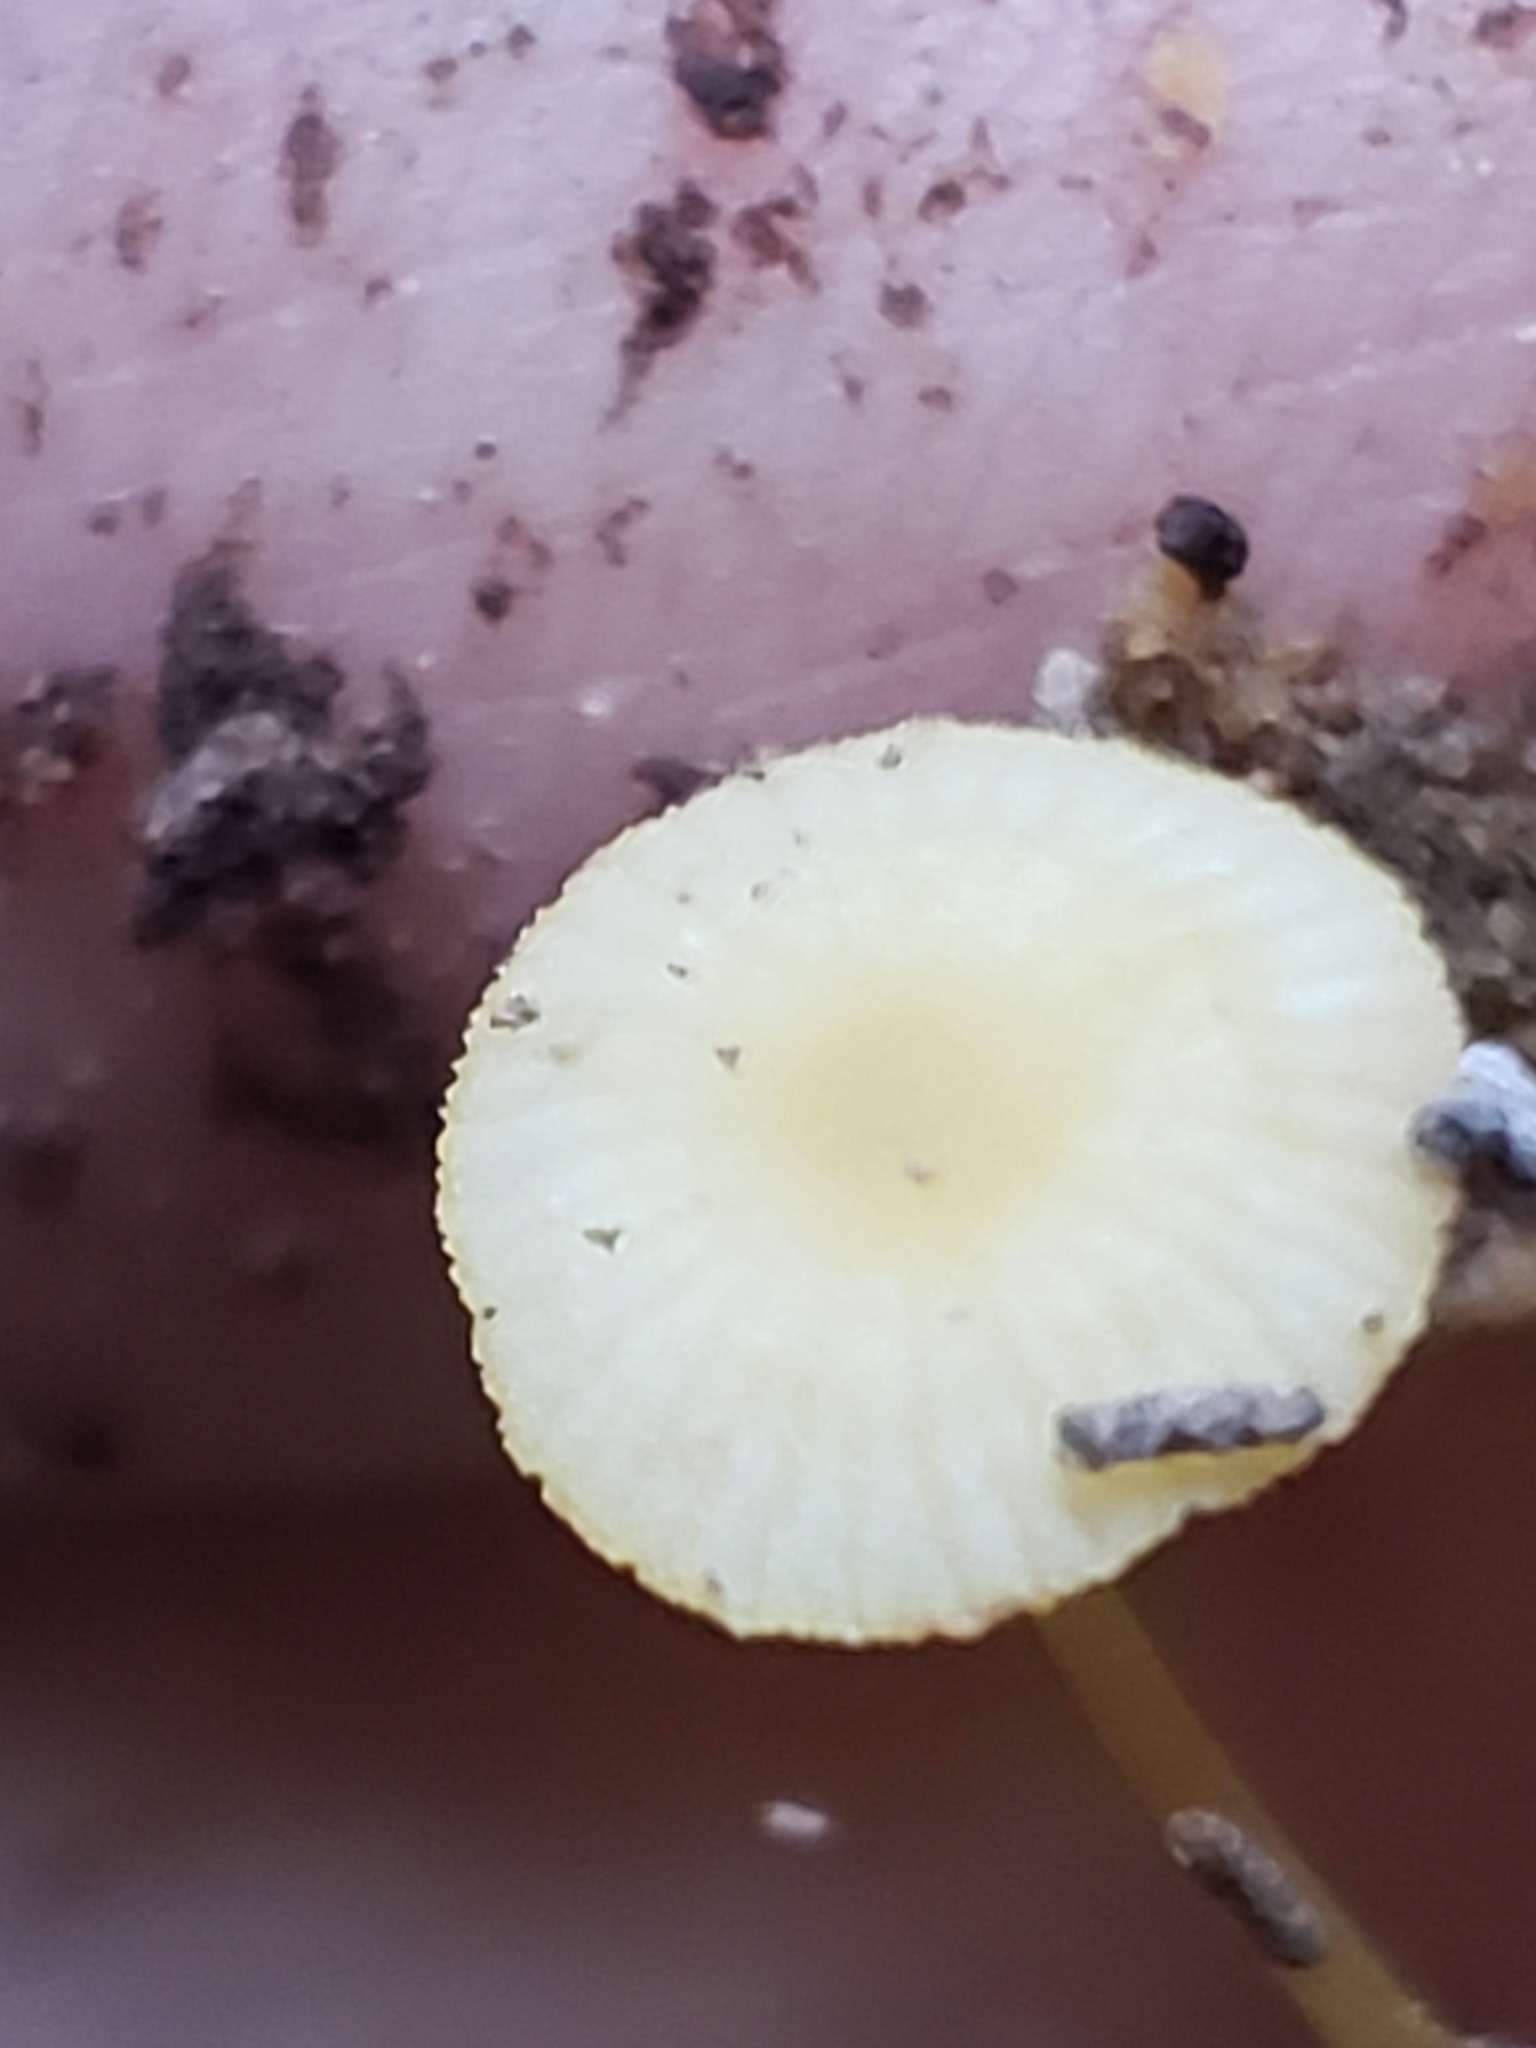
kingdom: Fungi
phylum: Basidiomycota
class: Agaricomycetes
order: Agaricales
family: Mycenaceae
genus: Mycena
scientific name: Mycena crocea
